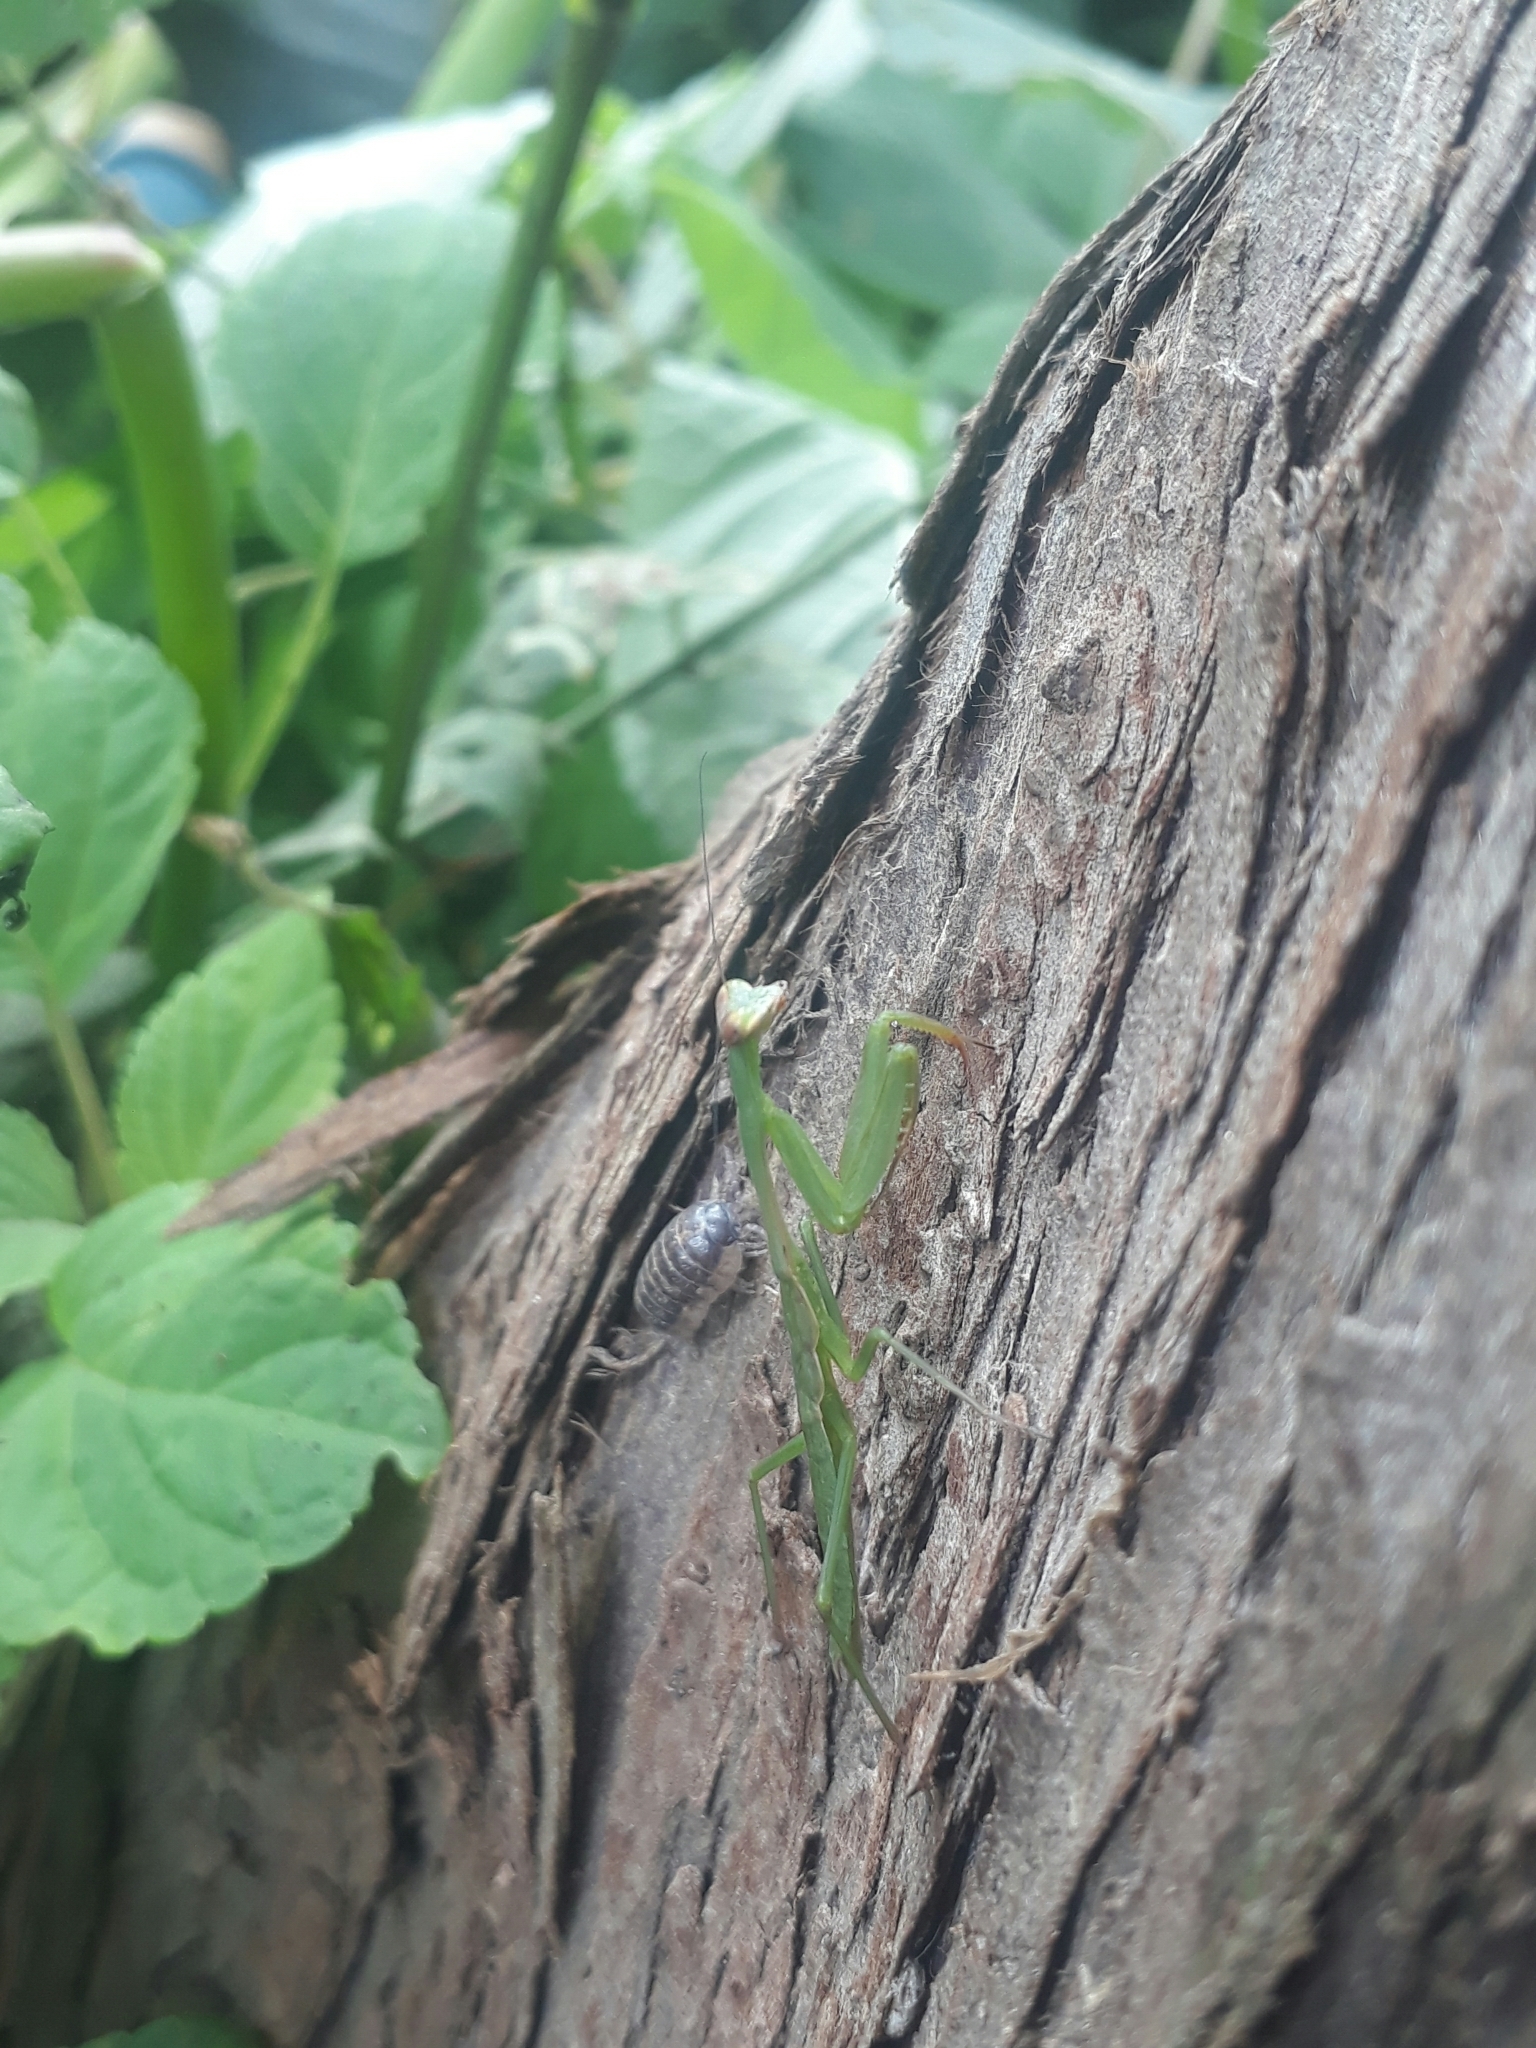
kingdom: Animalia
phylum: Arthropoda
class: Insecta
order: Mantodea
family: Mantidae
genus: Stagmomantis
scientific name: Stagmomantis nahua
